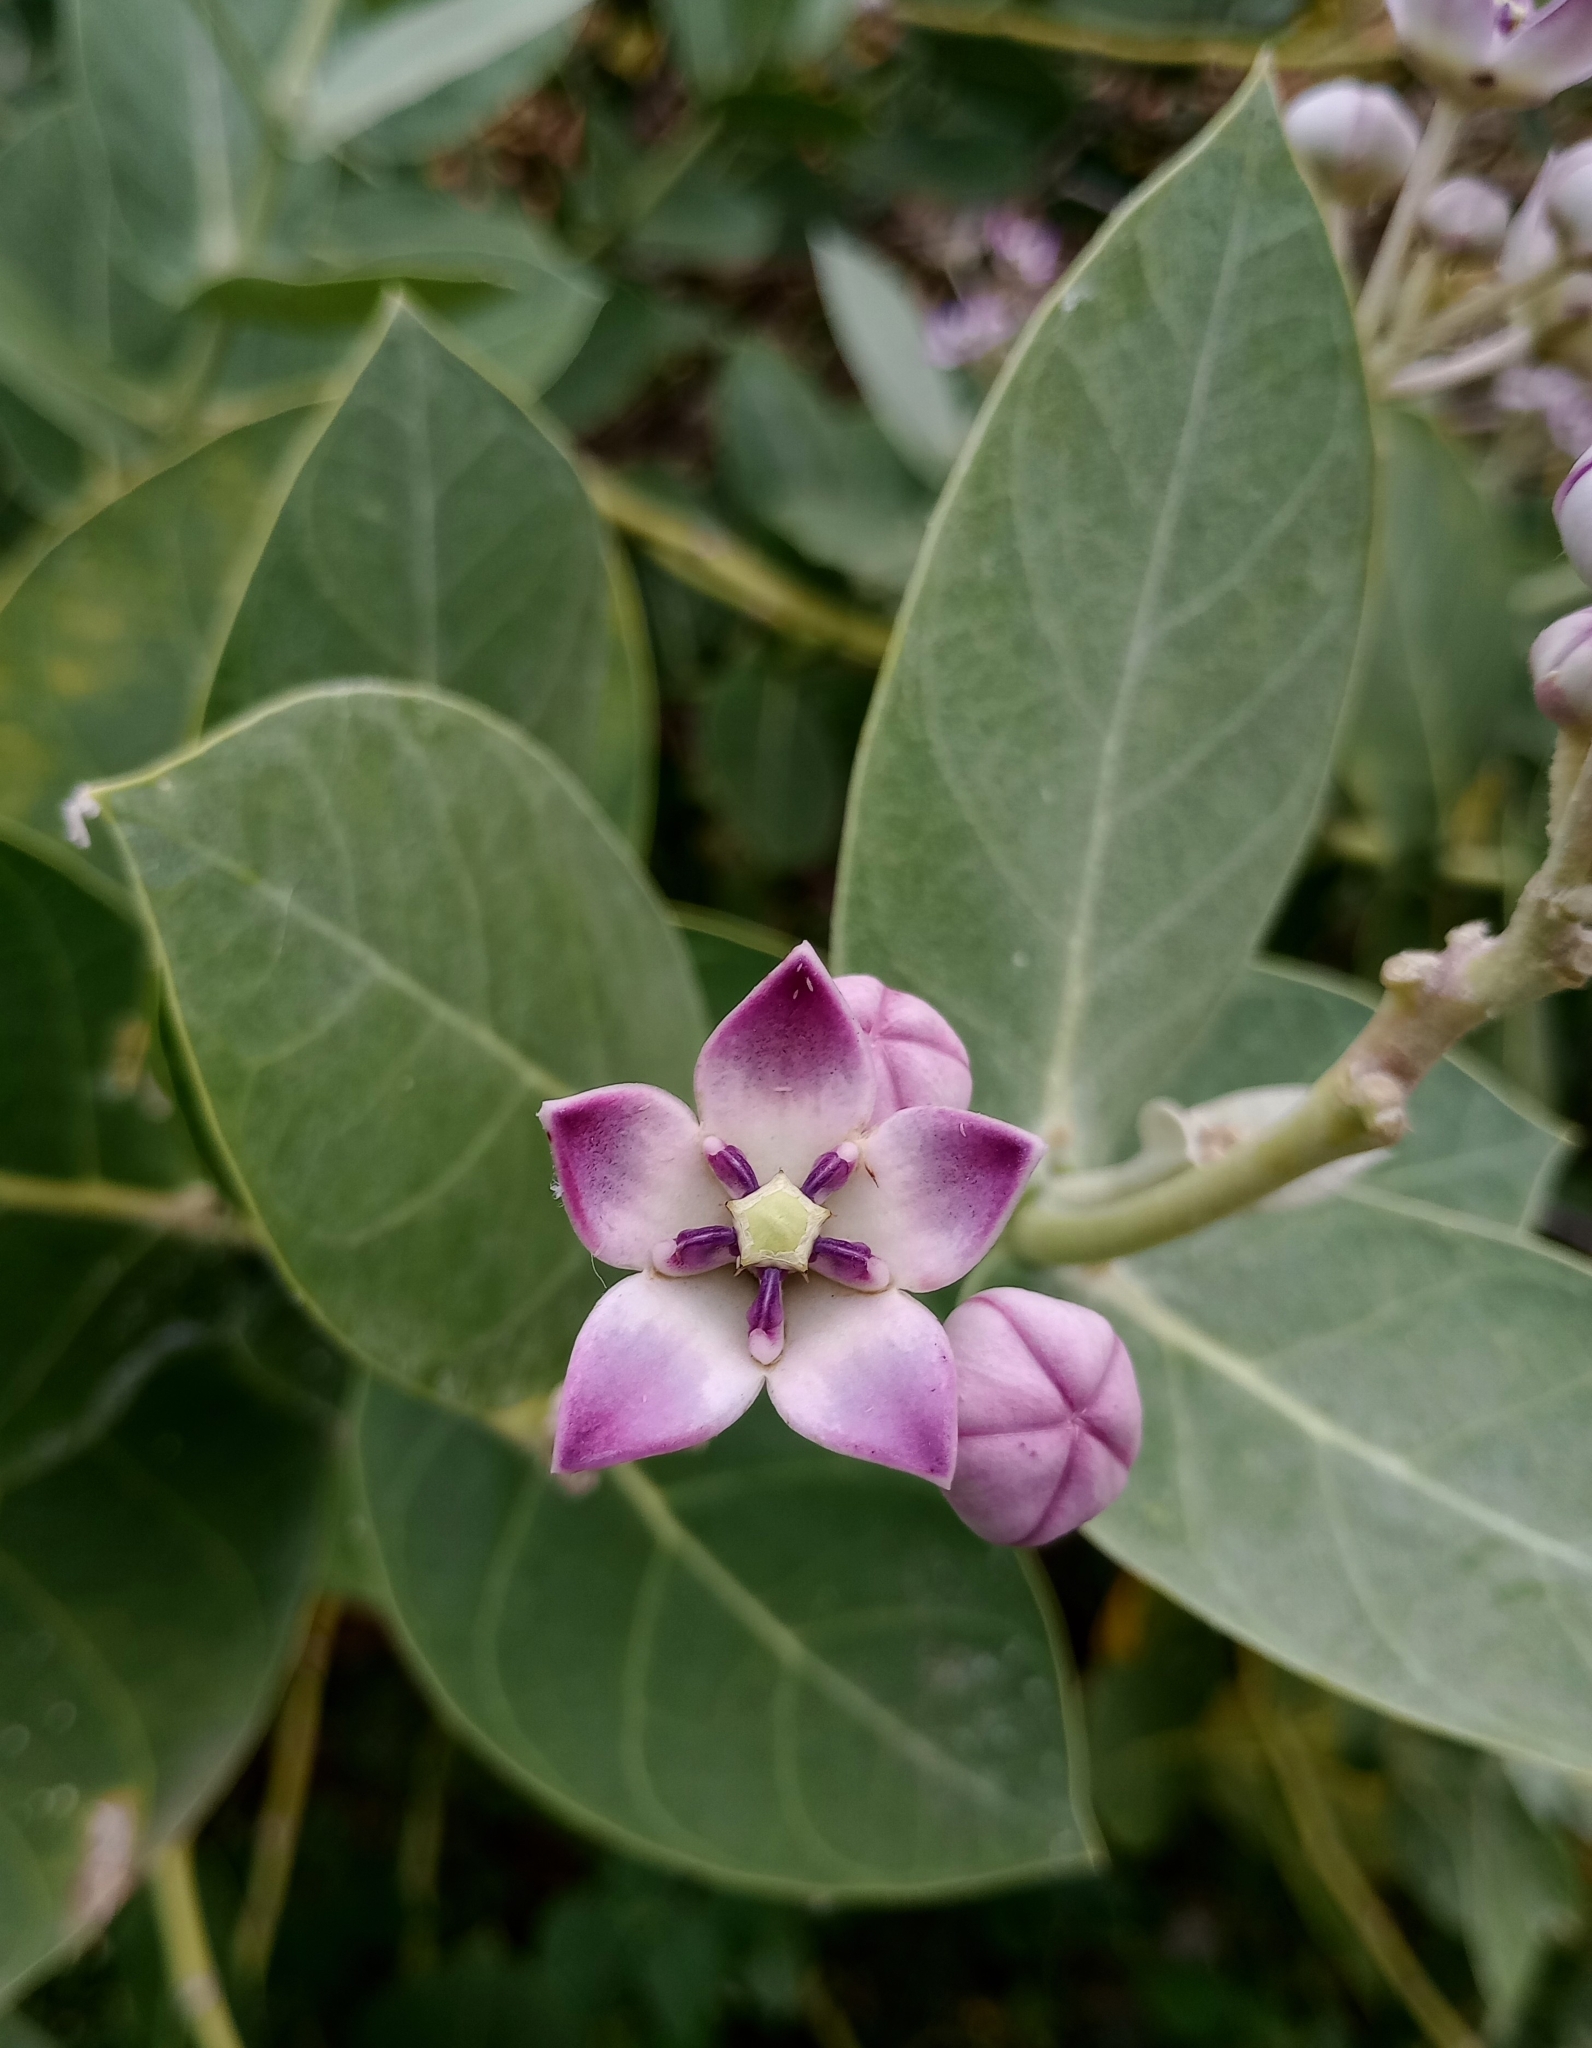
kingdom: Plantae
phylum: Tracheophyta
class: Magnoliopsida
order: Gentianales
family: Apocynaceae
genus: Calotropis
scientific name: Calotropis procera
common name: Roostertree
